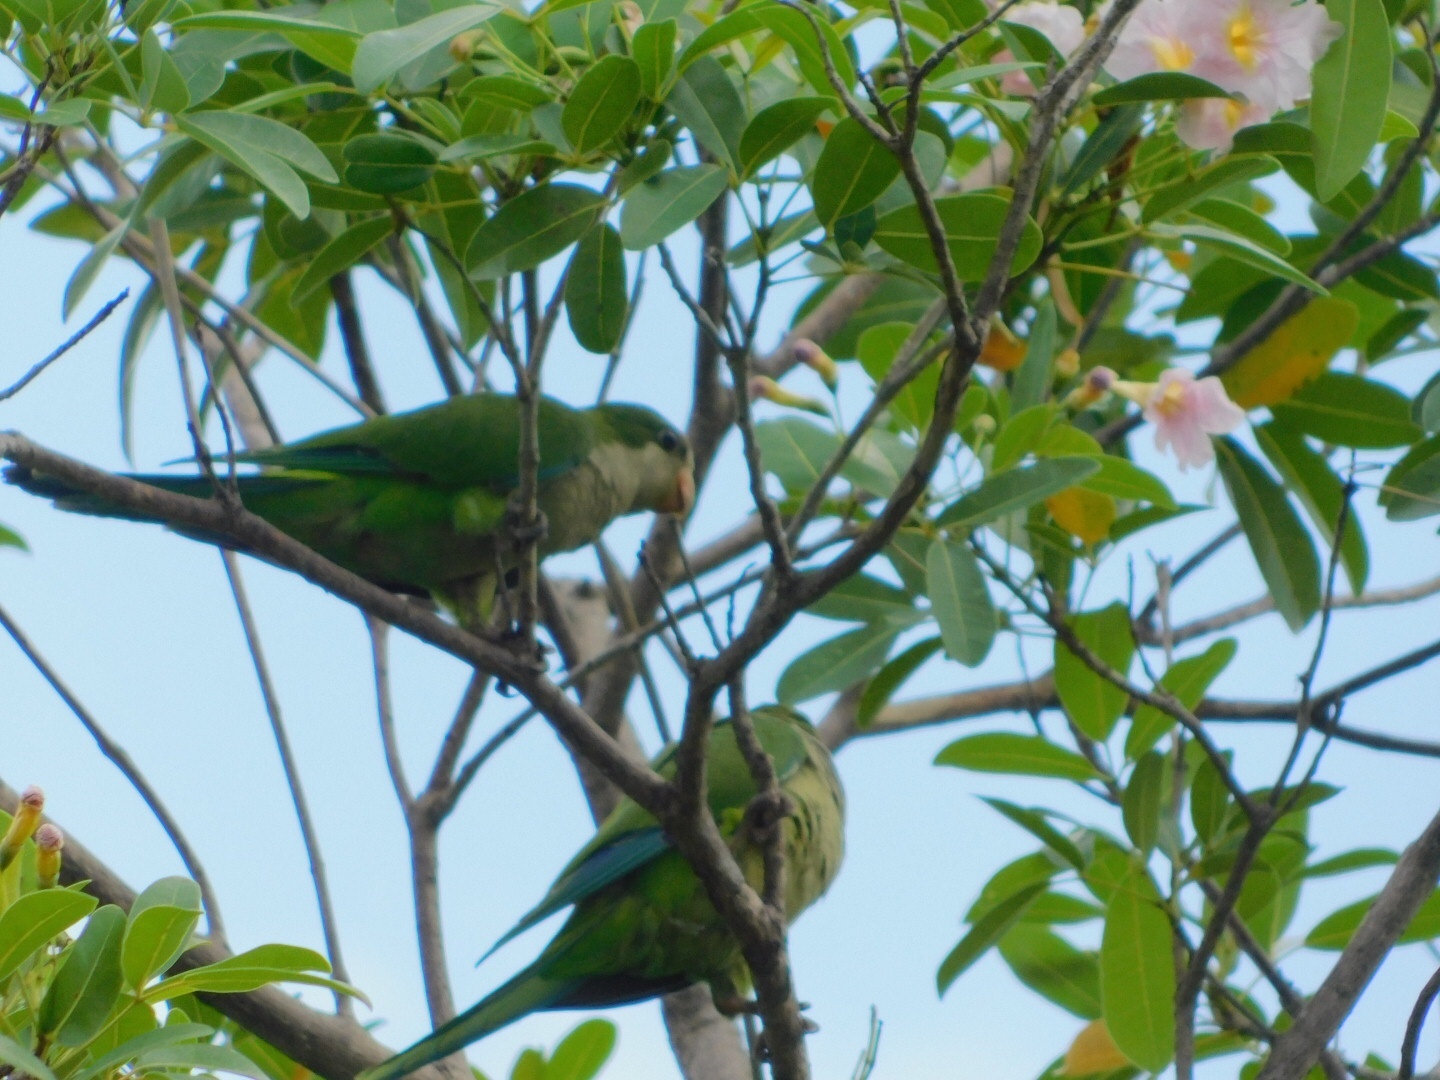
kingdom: Animalia
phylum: Chordata
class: Aves
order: Psittaciformes
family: Psittacidae
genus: Myiopsitta
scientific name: Myiopsitta monachus
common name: Monk parakeet
